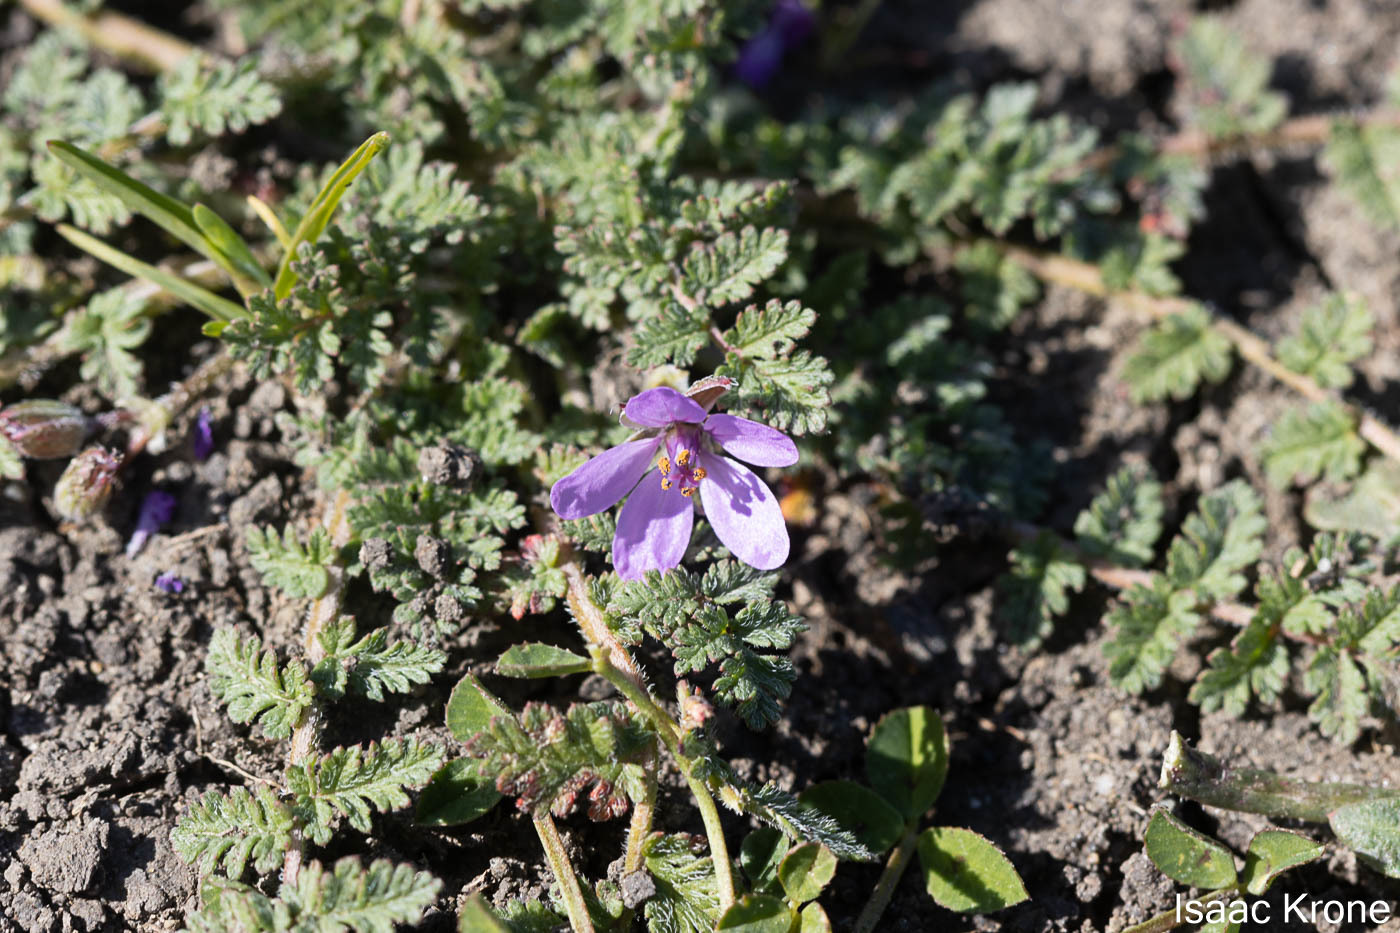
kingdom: Plantae
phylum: Tracheophyta
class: Magnoliopsida
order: Geraniales
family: Geraniaceae
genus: Erodium
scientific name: Erodium cicutarium
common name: Common stork's-bill
